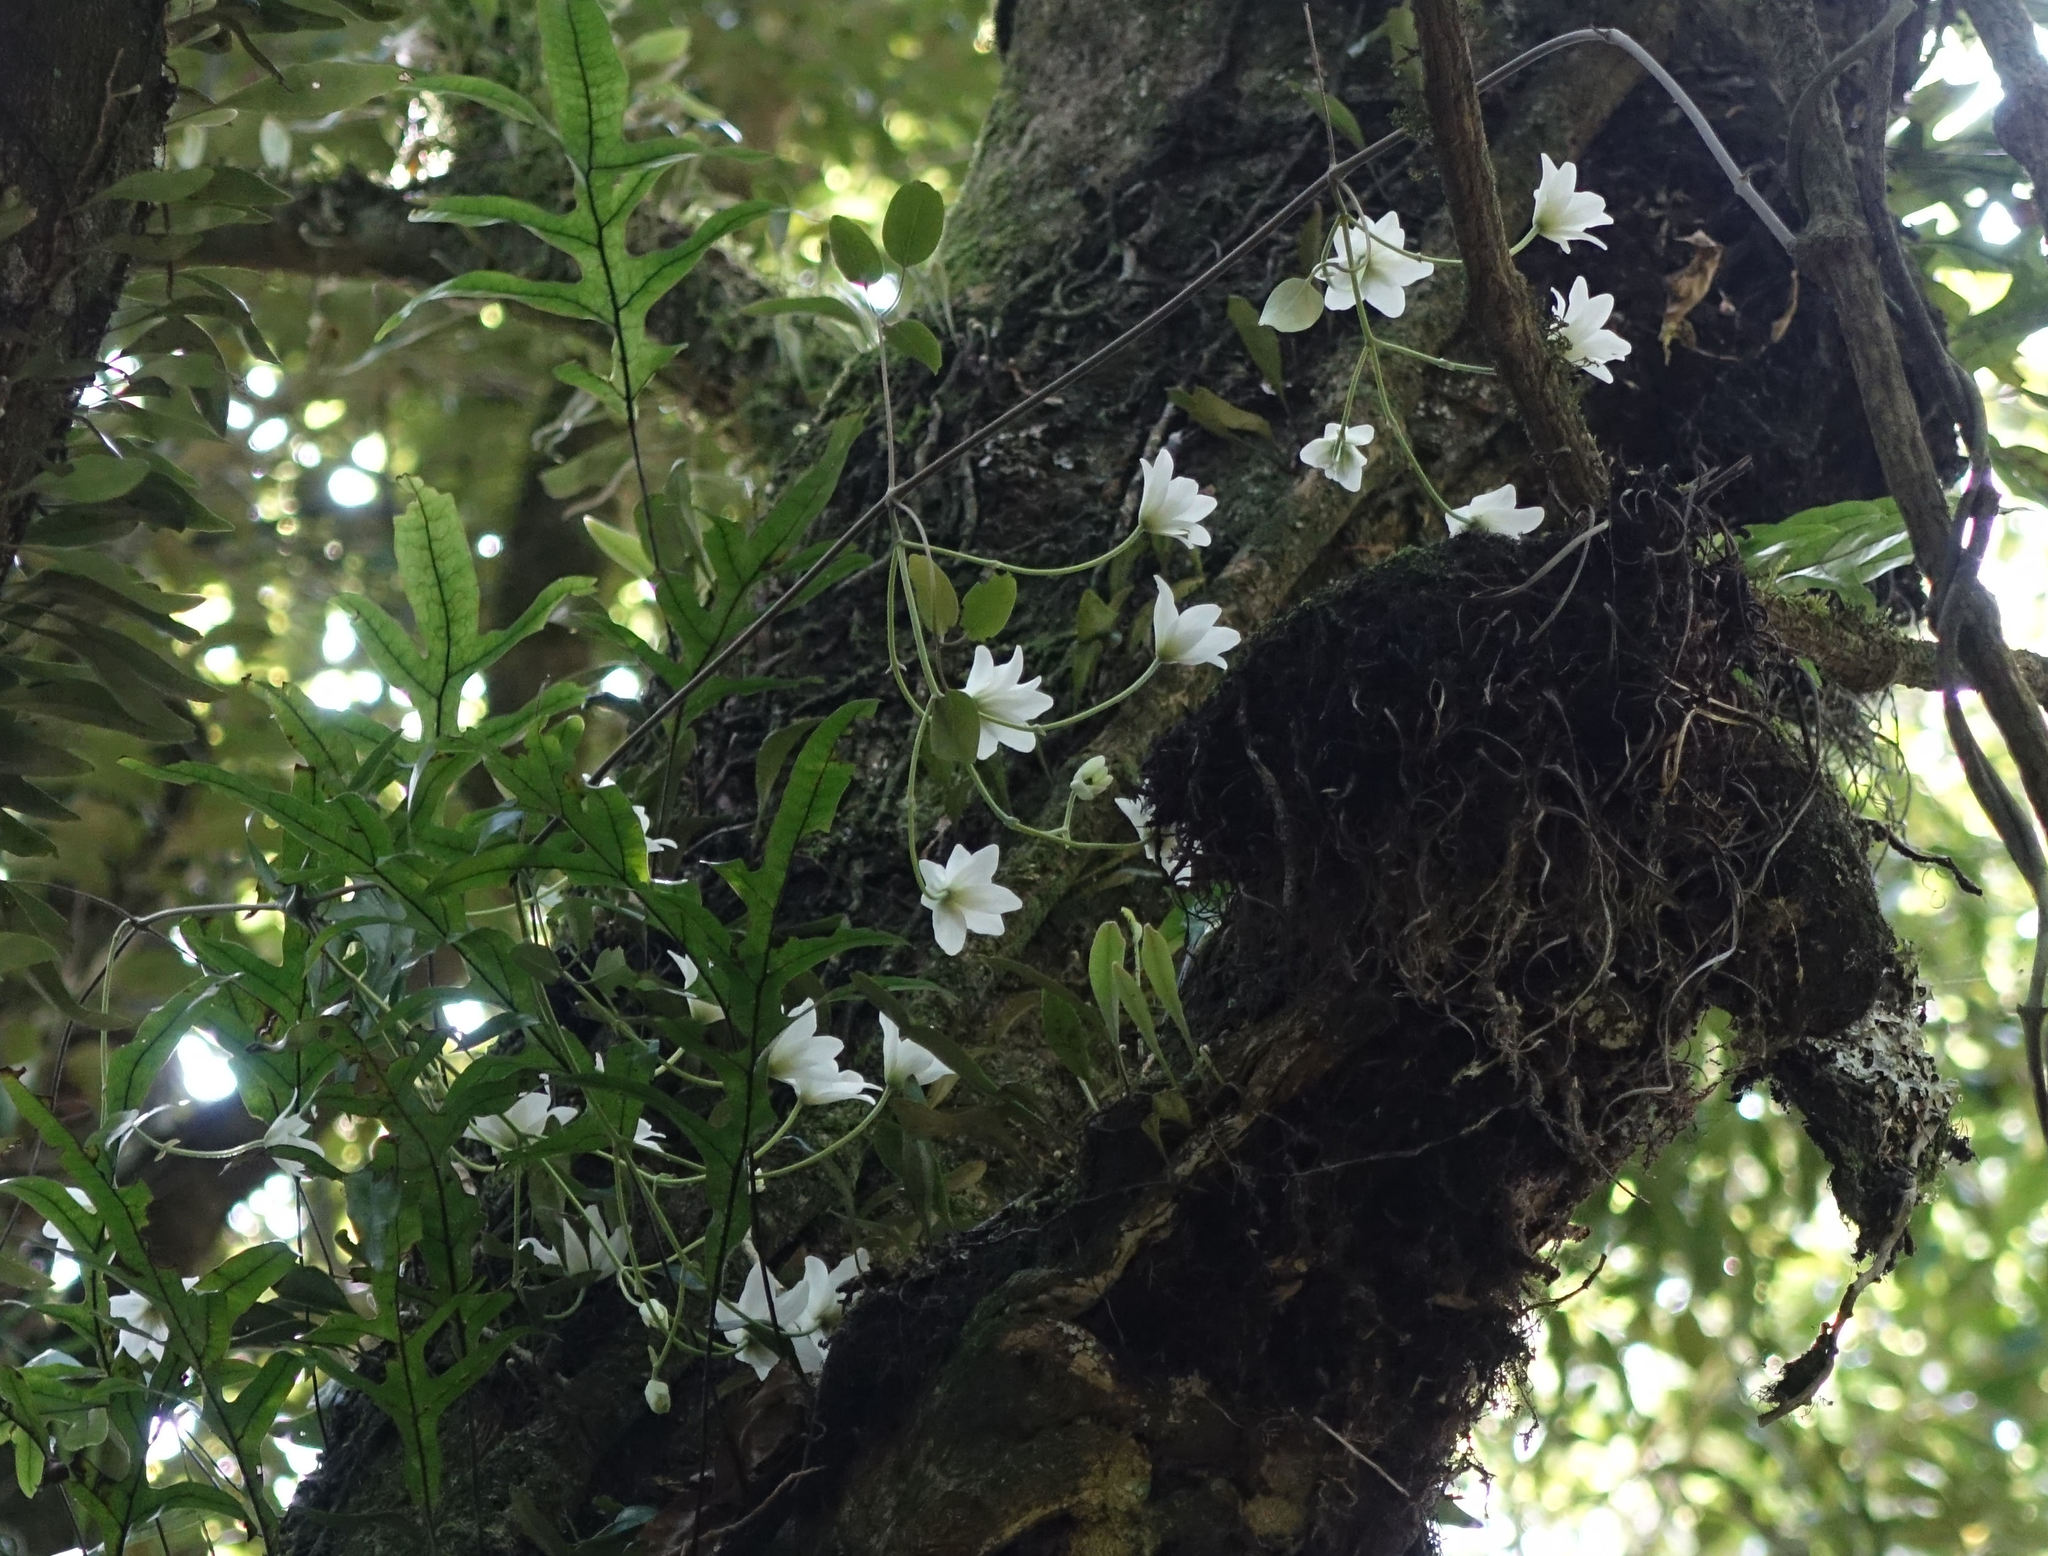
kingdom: Plantae
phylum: Tracheophyta
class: Magnoliopsida
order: Ranunculales
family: Ranunculaceae
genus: Clematis
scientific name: Clematis paniculata
